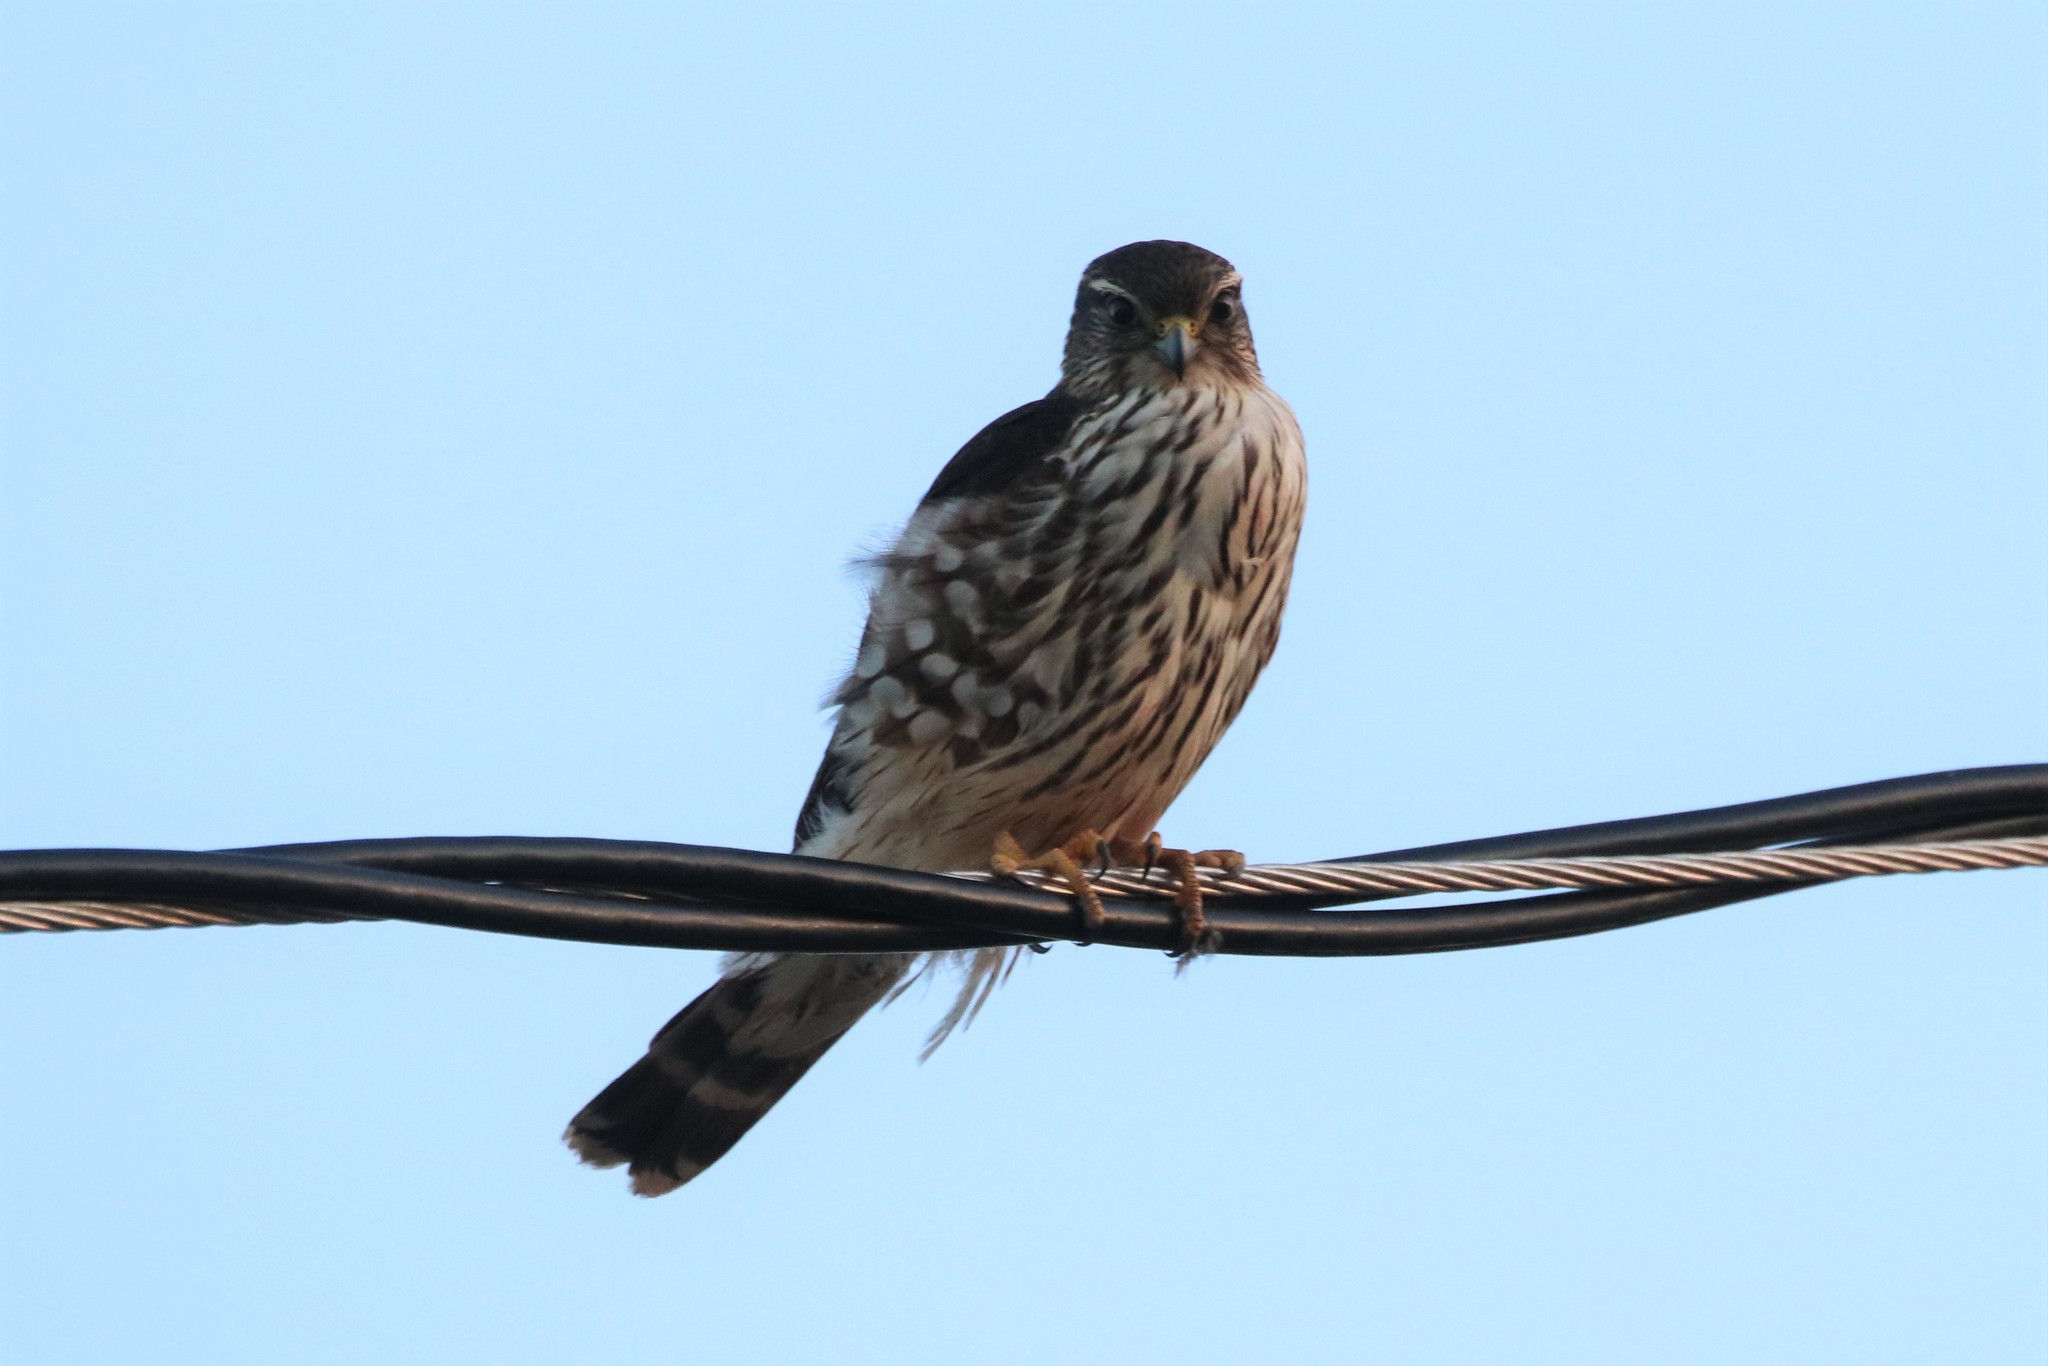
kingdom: Animalia
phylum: Chordata
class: Aves
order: Falconiformes
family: Falconidae
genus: Falco
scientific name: Falco columbarius
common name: Merlin
